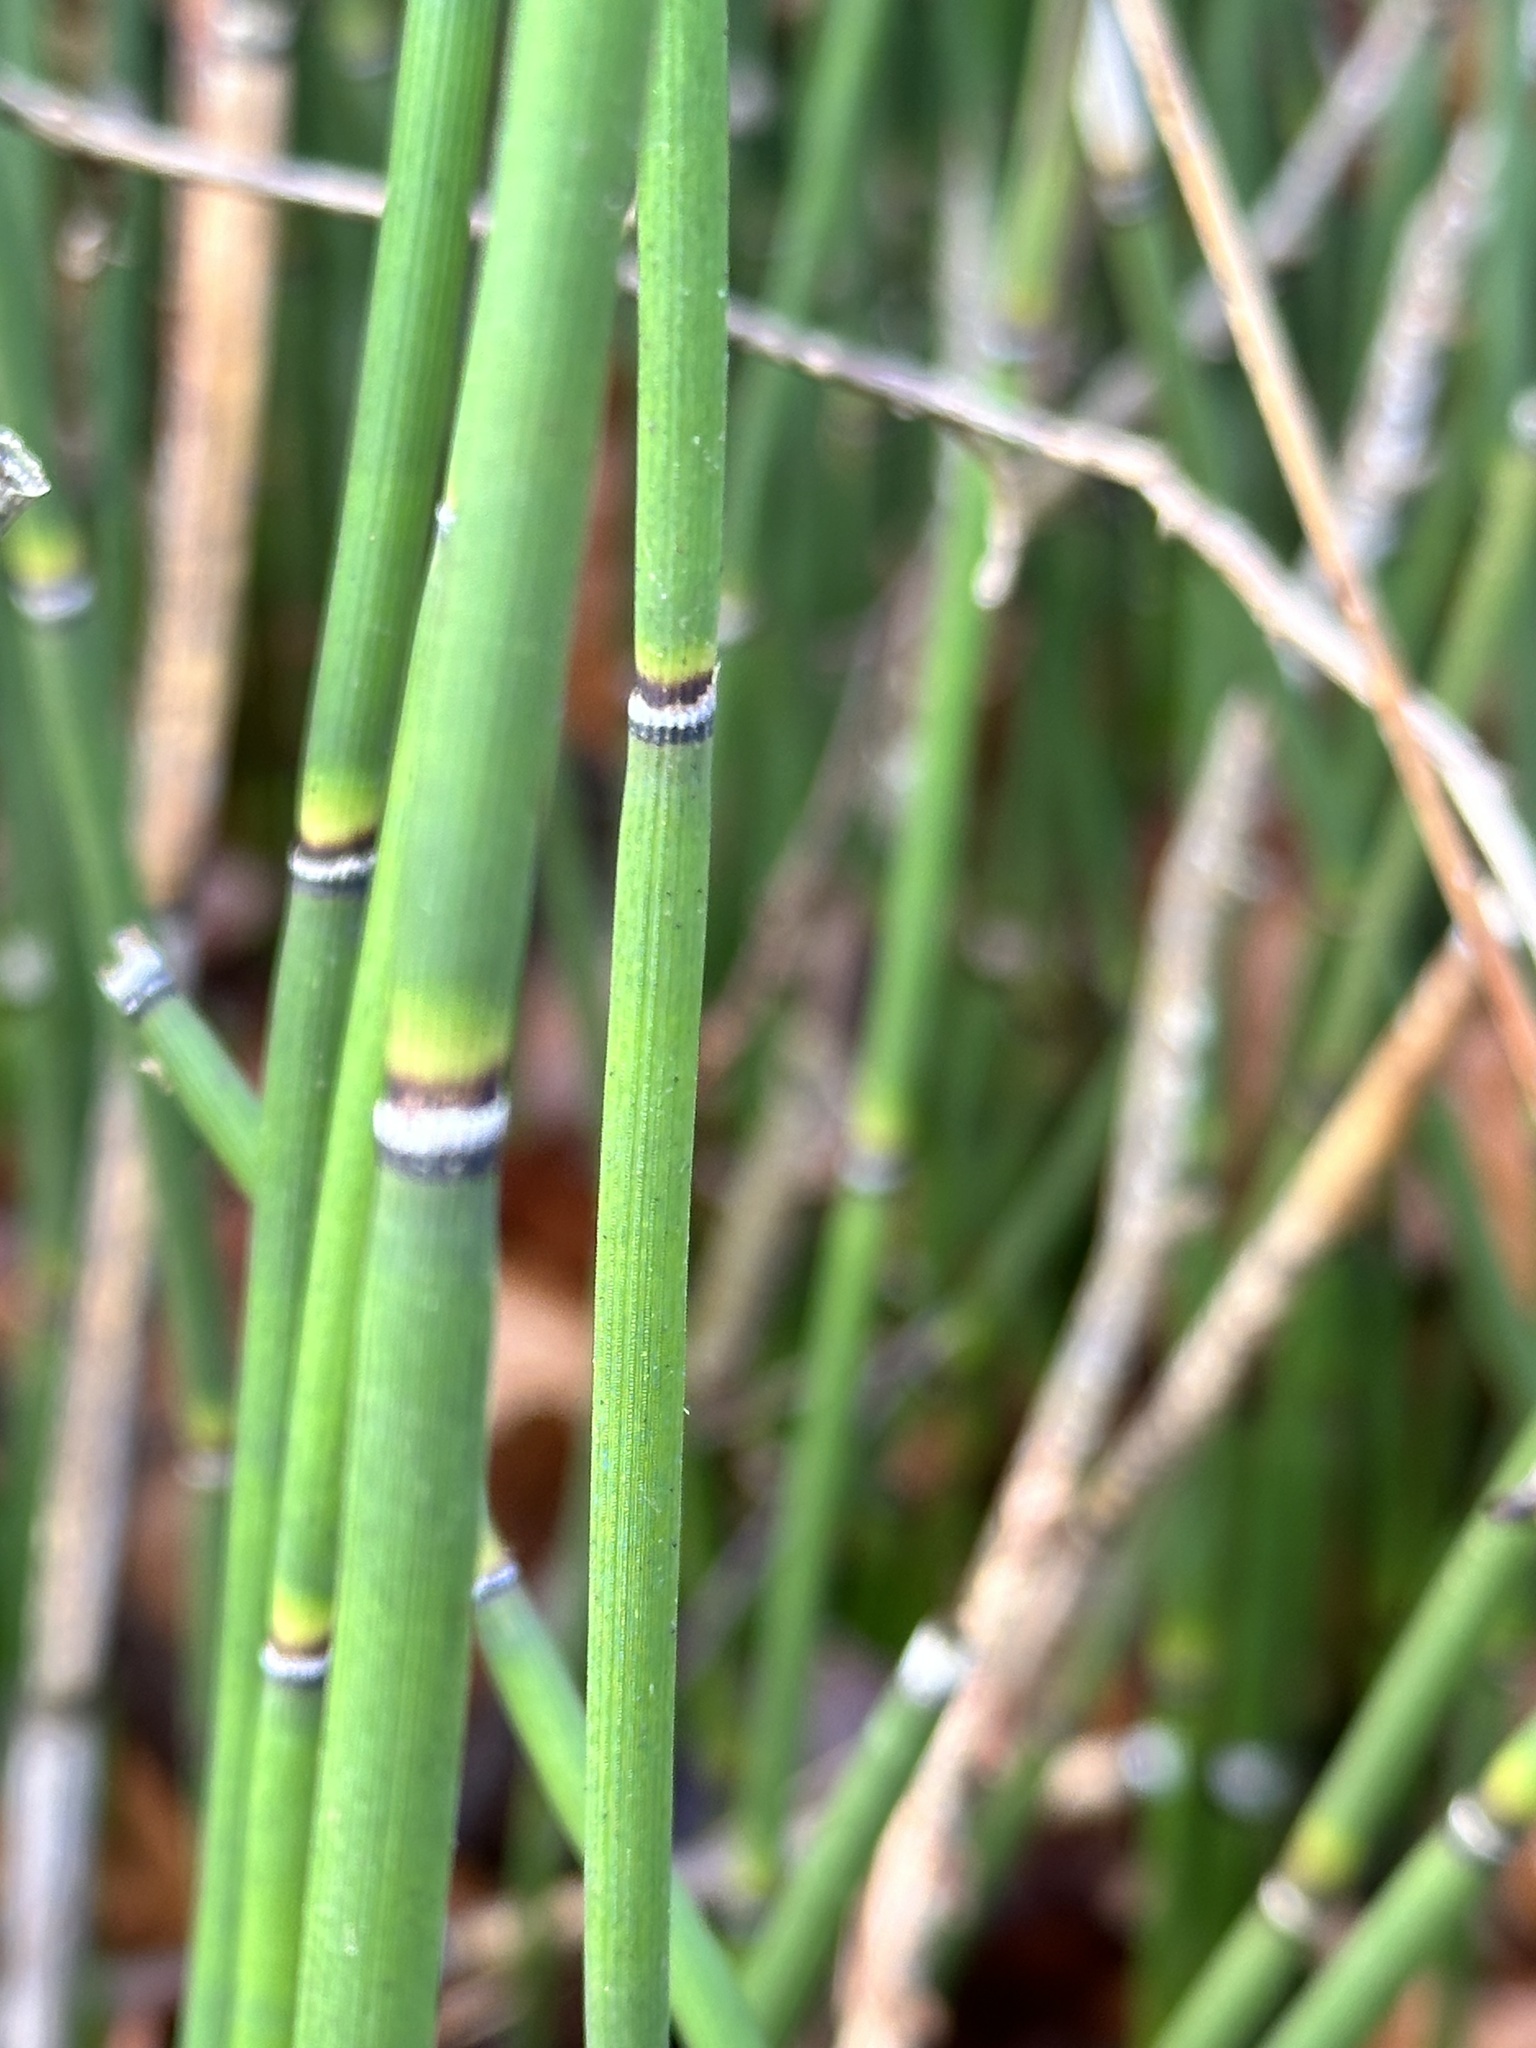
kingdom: Plantae
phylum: Tracheophyta
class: Polypodiopsida
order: Equisetales
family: Equisetaceae
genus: Equisetum
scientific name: Equisetum hyemale
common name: Rough horsetail
